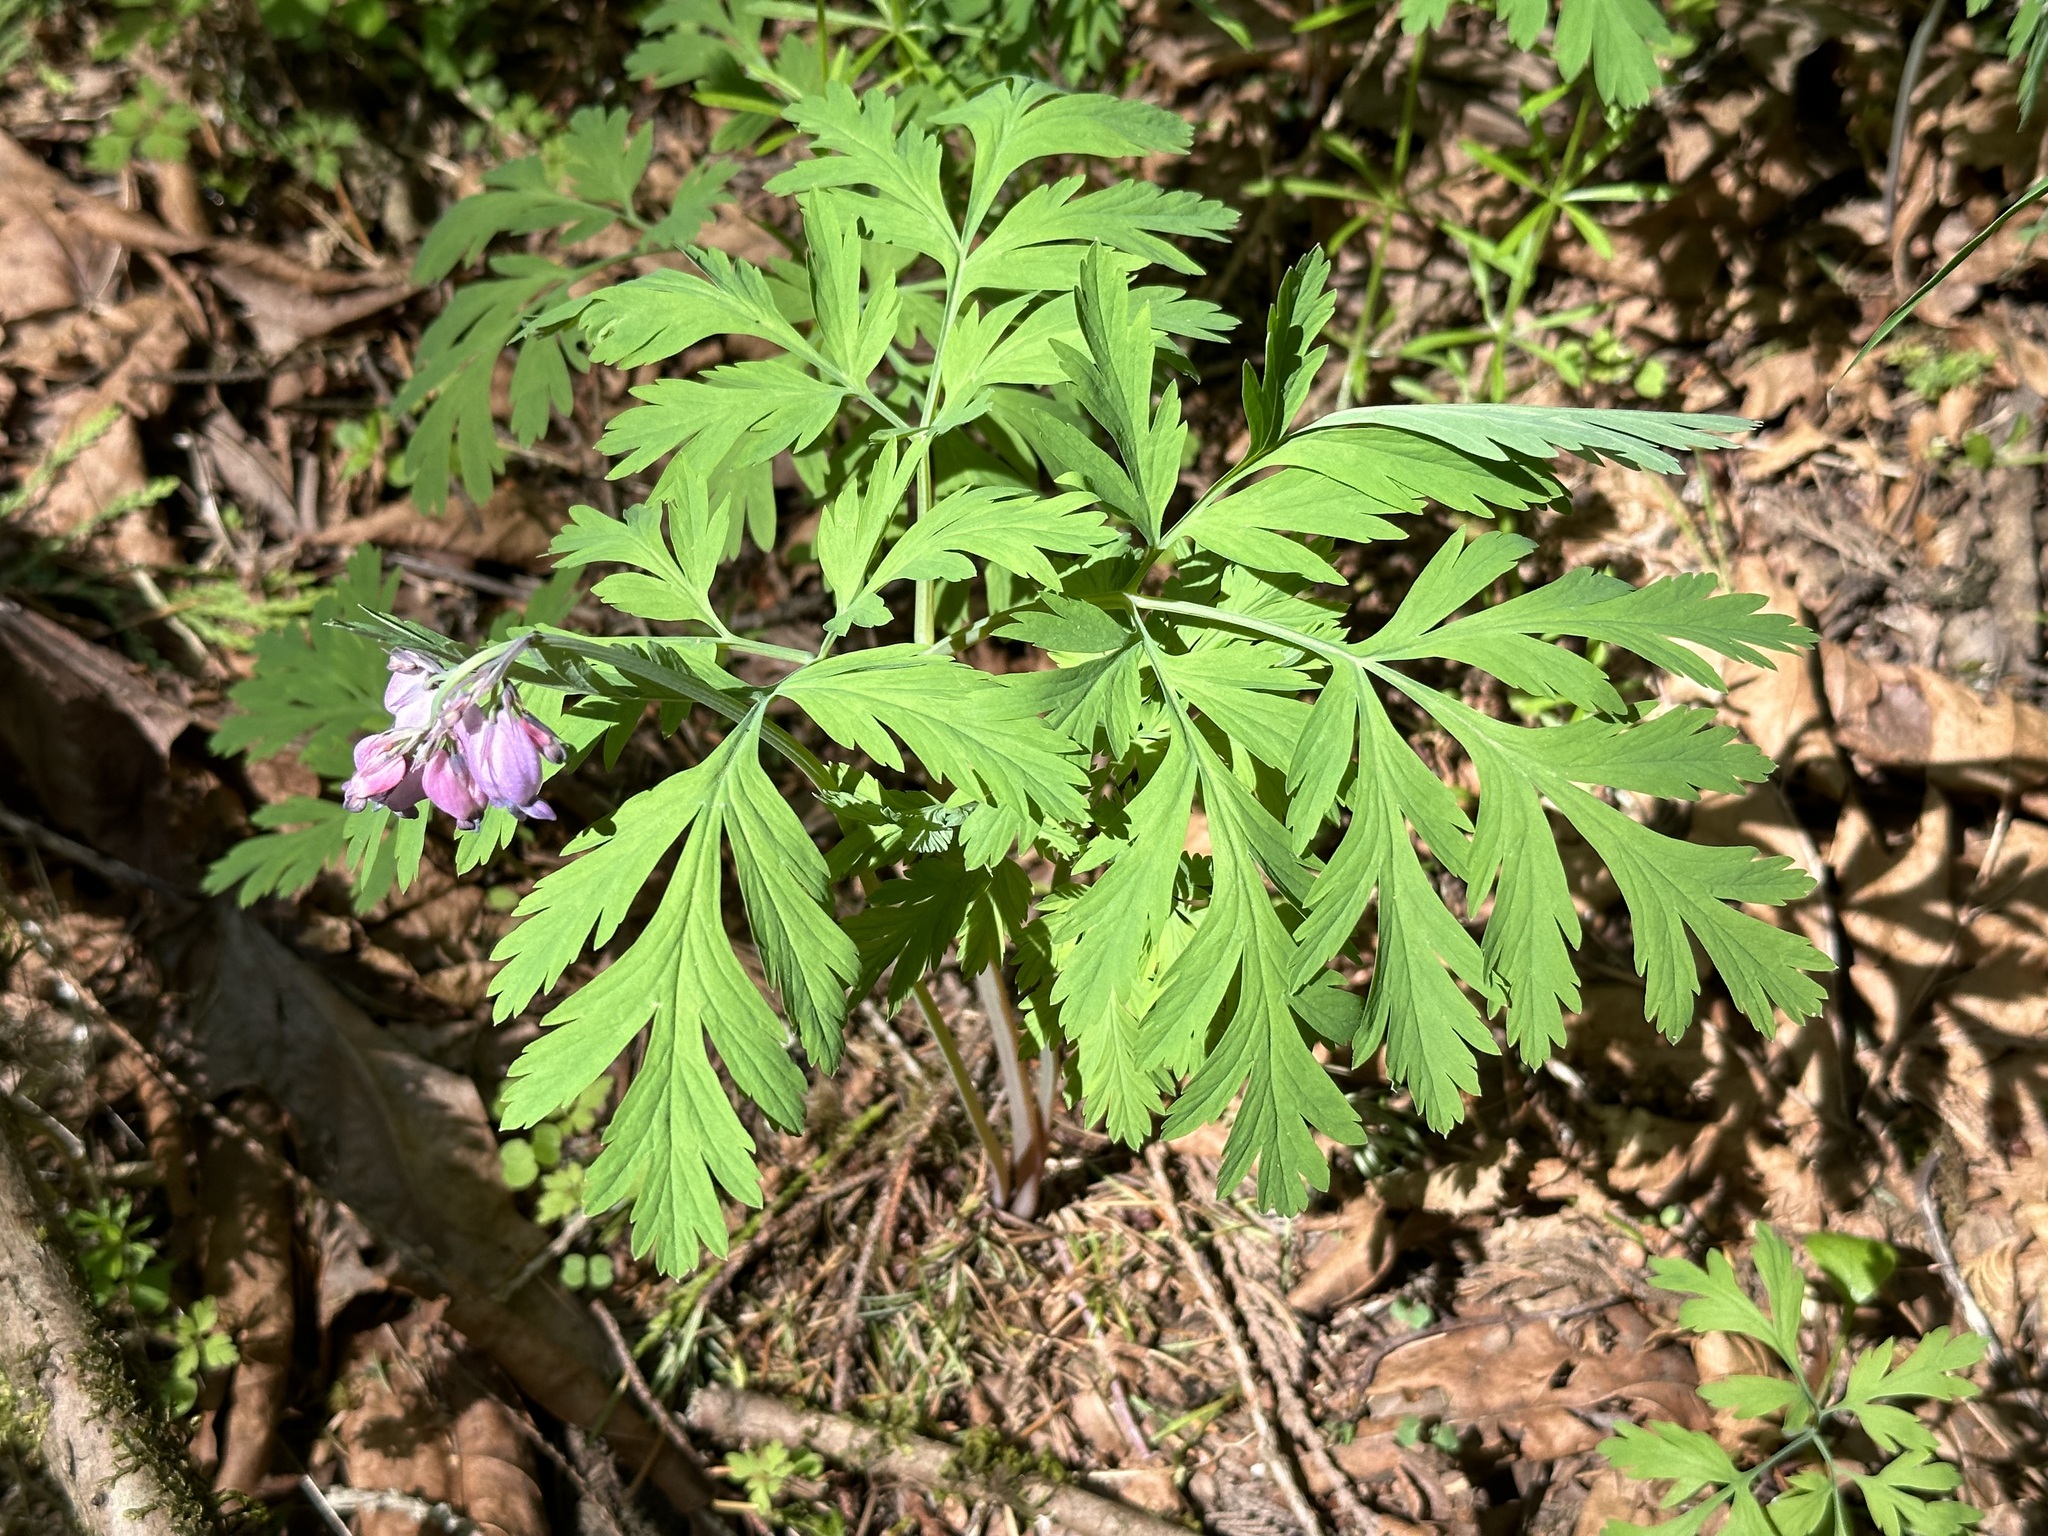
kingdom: Plantae
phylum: Tracheophyta
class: Magnoliopsida
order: Ranunculales
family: Papaveraceae
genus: Dicentra
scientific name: Dicentra formosa
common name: Bleeding-heart
